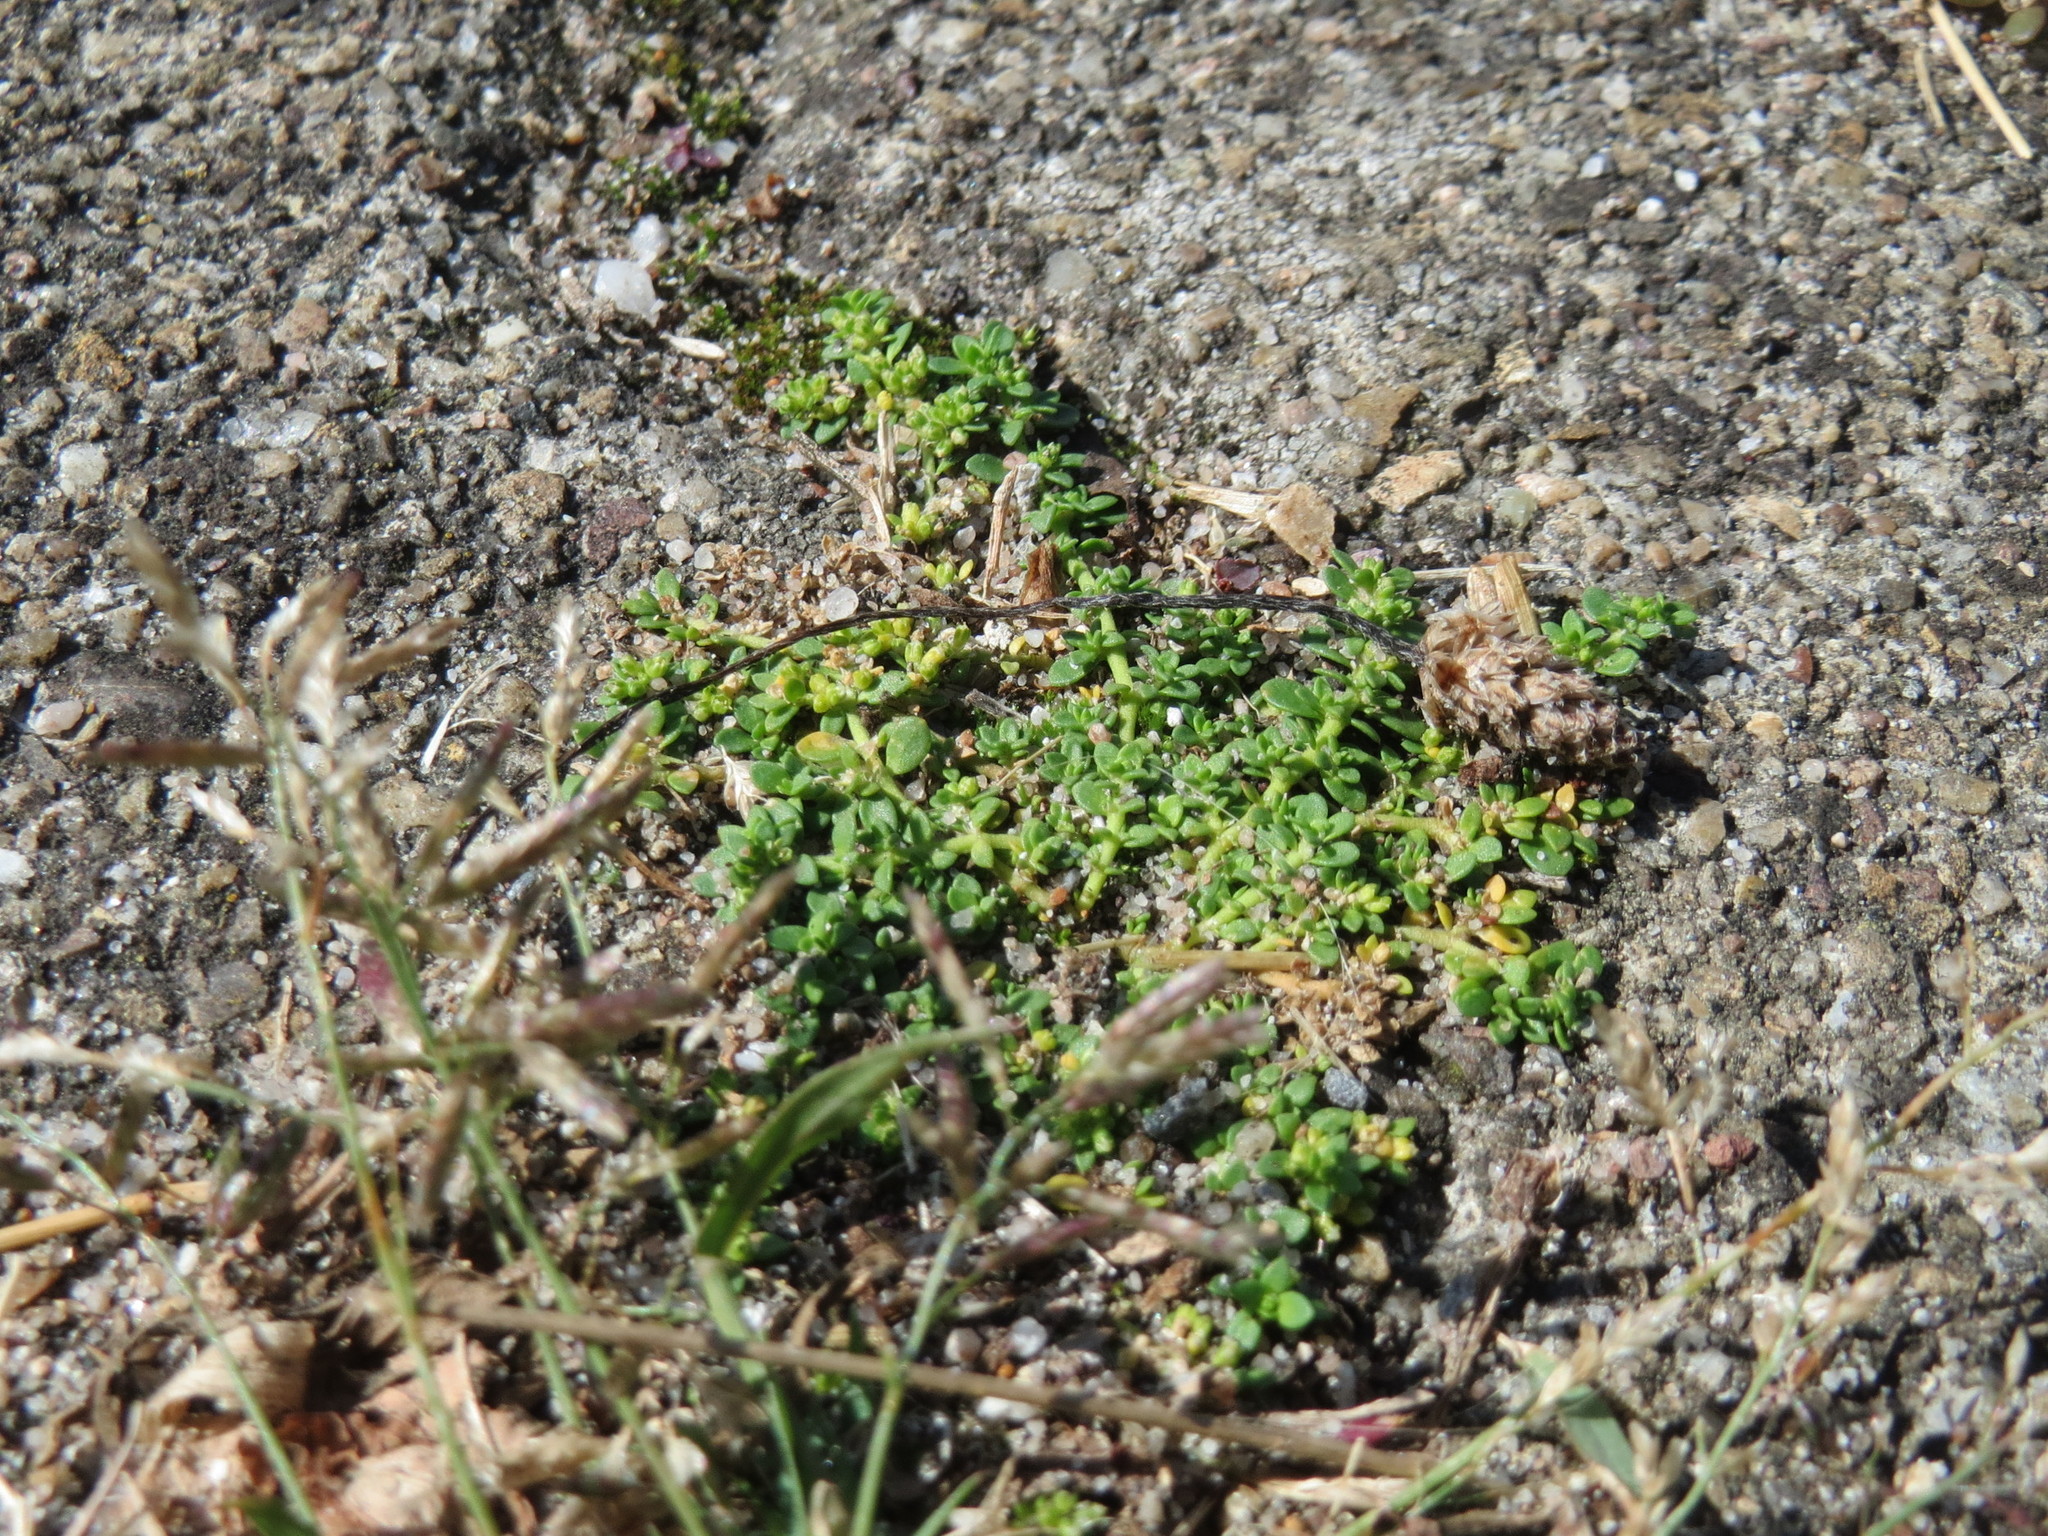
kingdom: Plantae
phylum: Tracheophyta
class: Magnoliopsida
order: Caryophyllales
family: Caryophyllaceae
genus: Herniaria
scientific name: Herniaria glabra
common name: Smooth rupturewort
